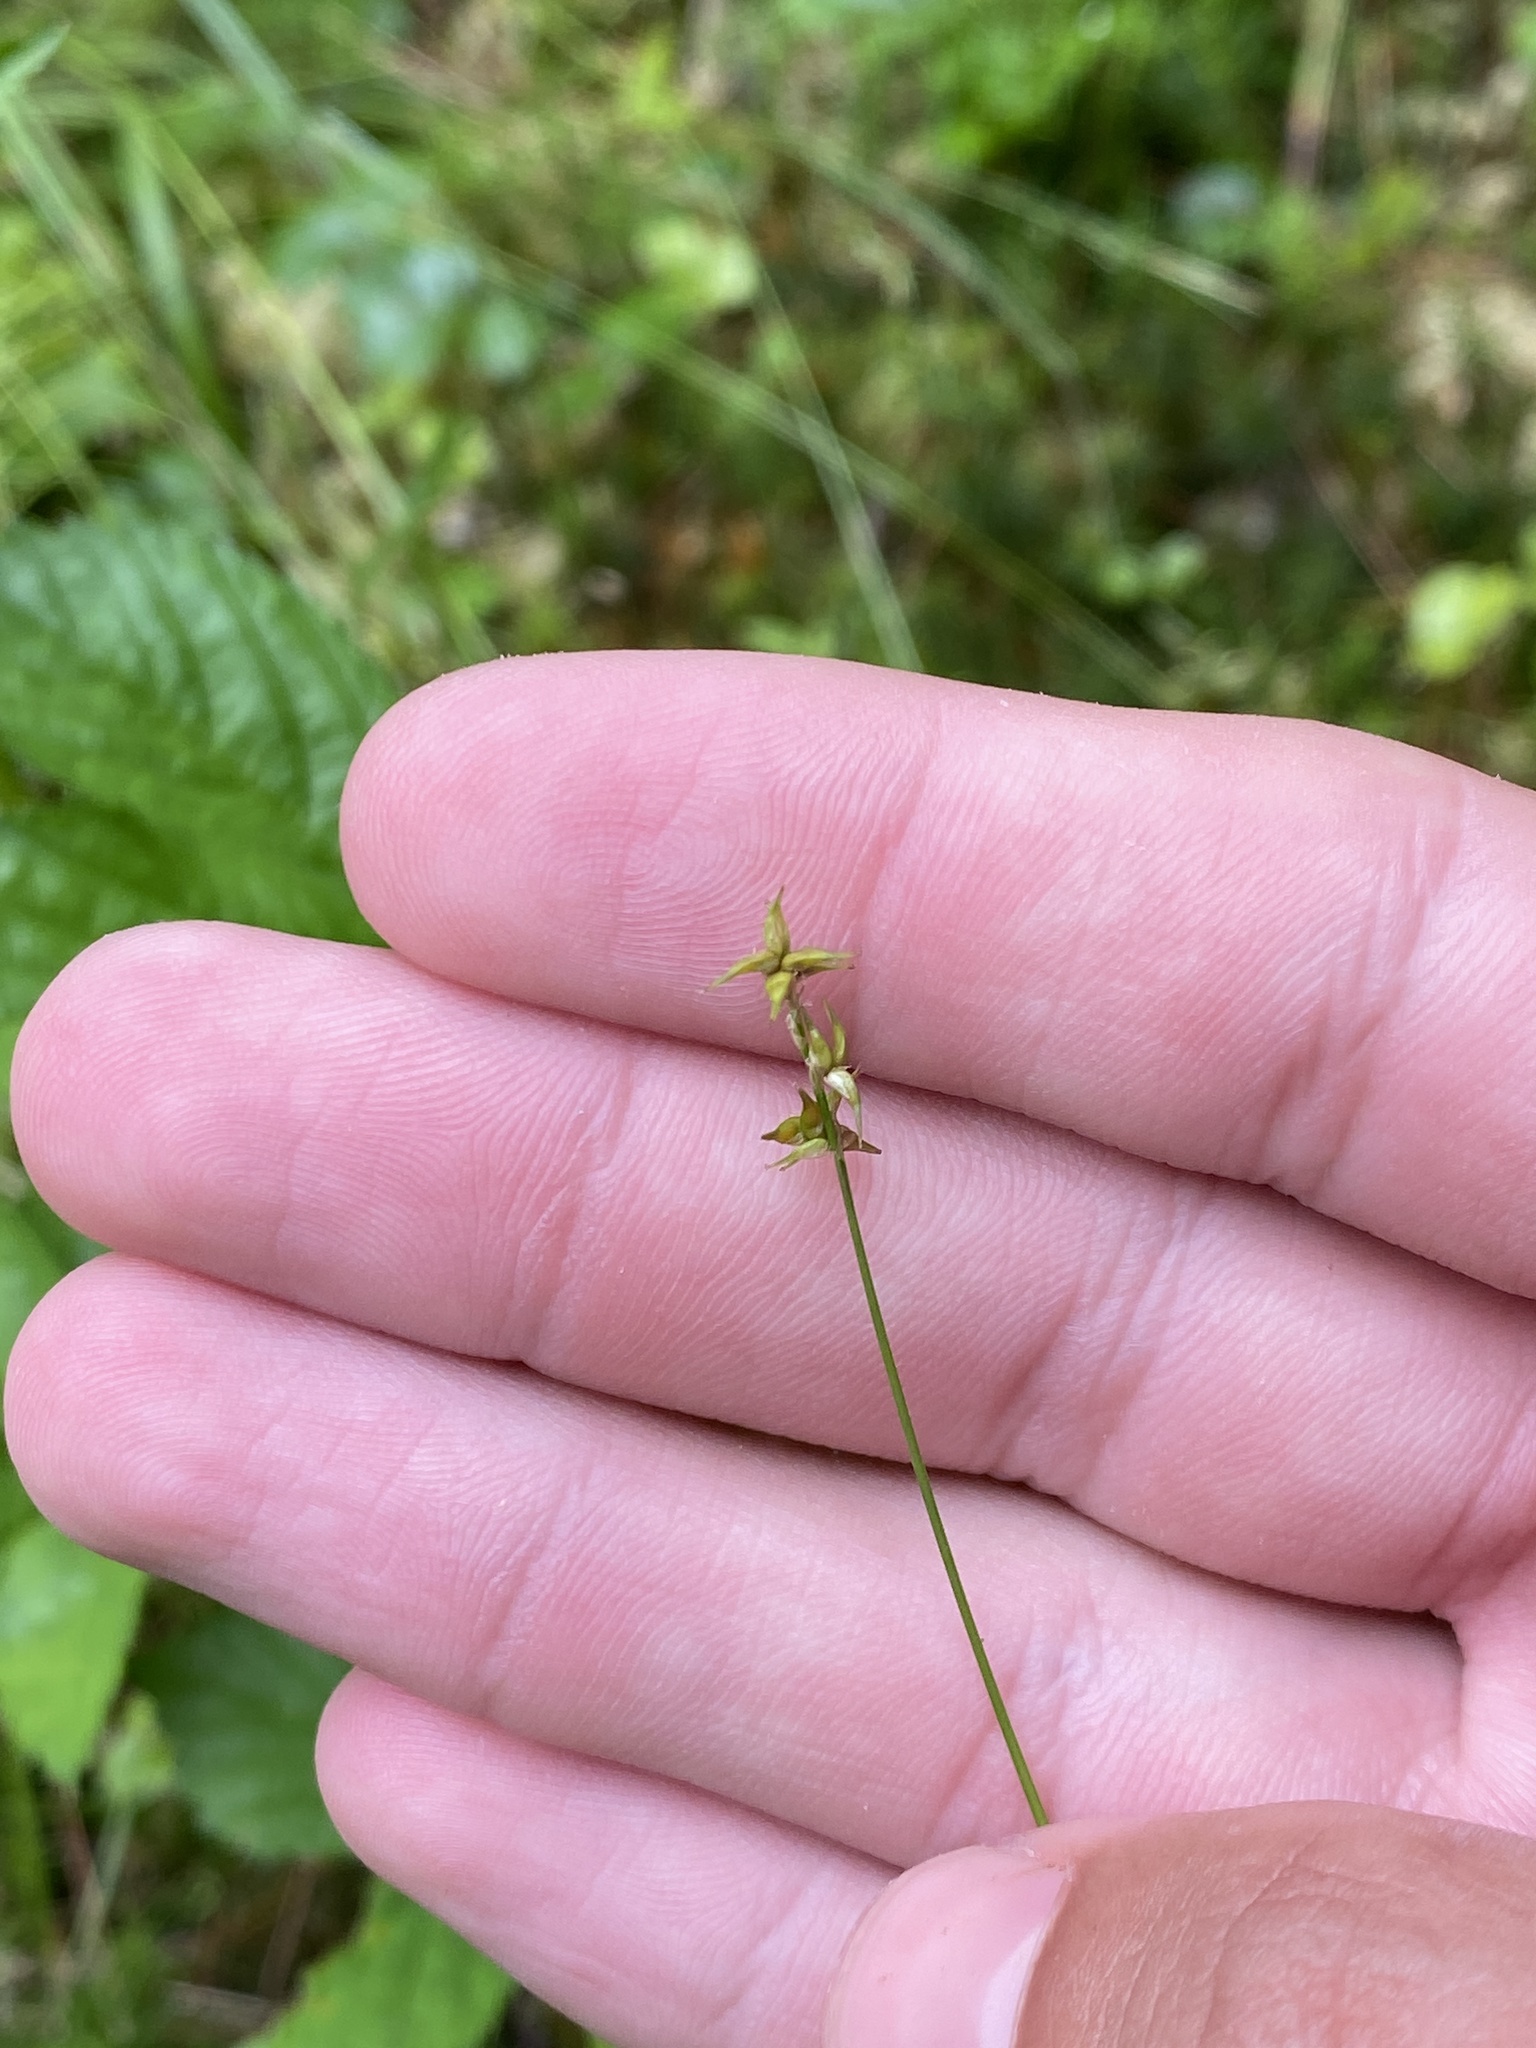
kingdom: Plantae
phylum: Tracheophyta
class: Liliopsida
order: Poales
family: Cyperaceae
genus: Carex
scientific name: Carex echinata
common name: Star sedge
